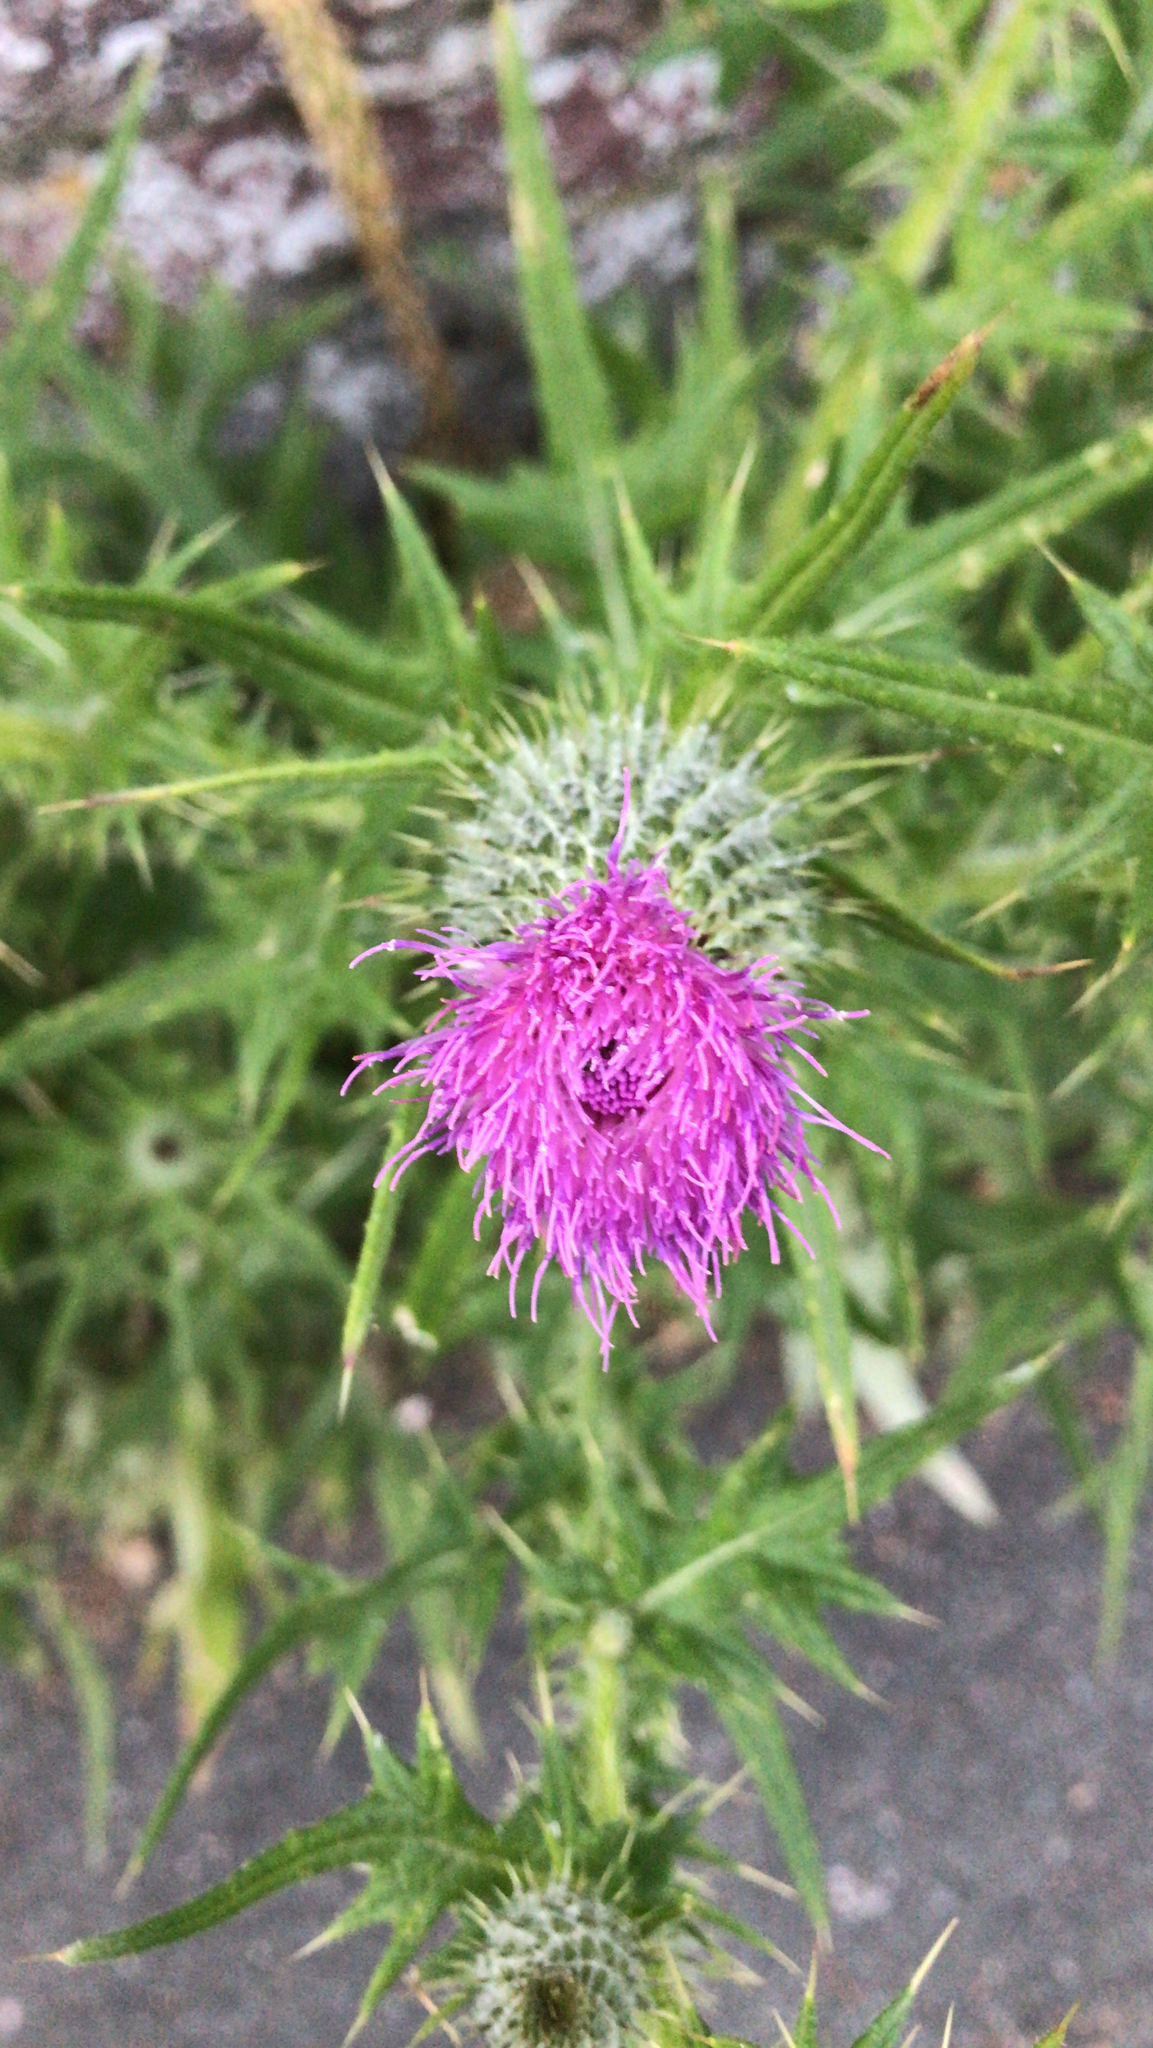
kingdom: Plantae
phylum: Tracheophyta
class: Magnoliopsida
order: Asterales
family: Asteraceae
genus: Cirsium
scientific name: Cirsium vulgare
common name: Bull thistle
